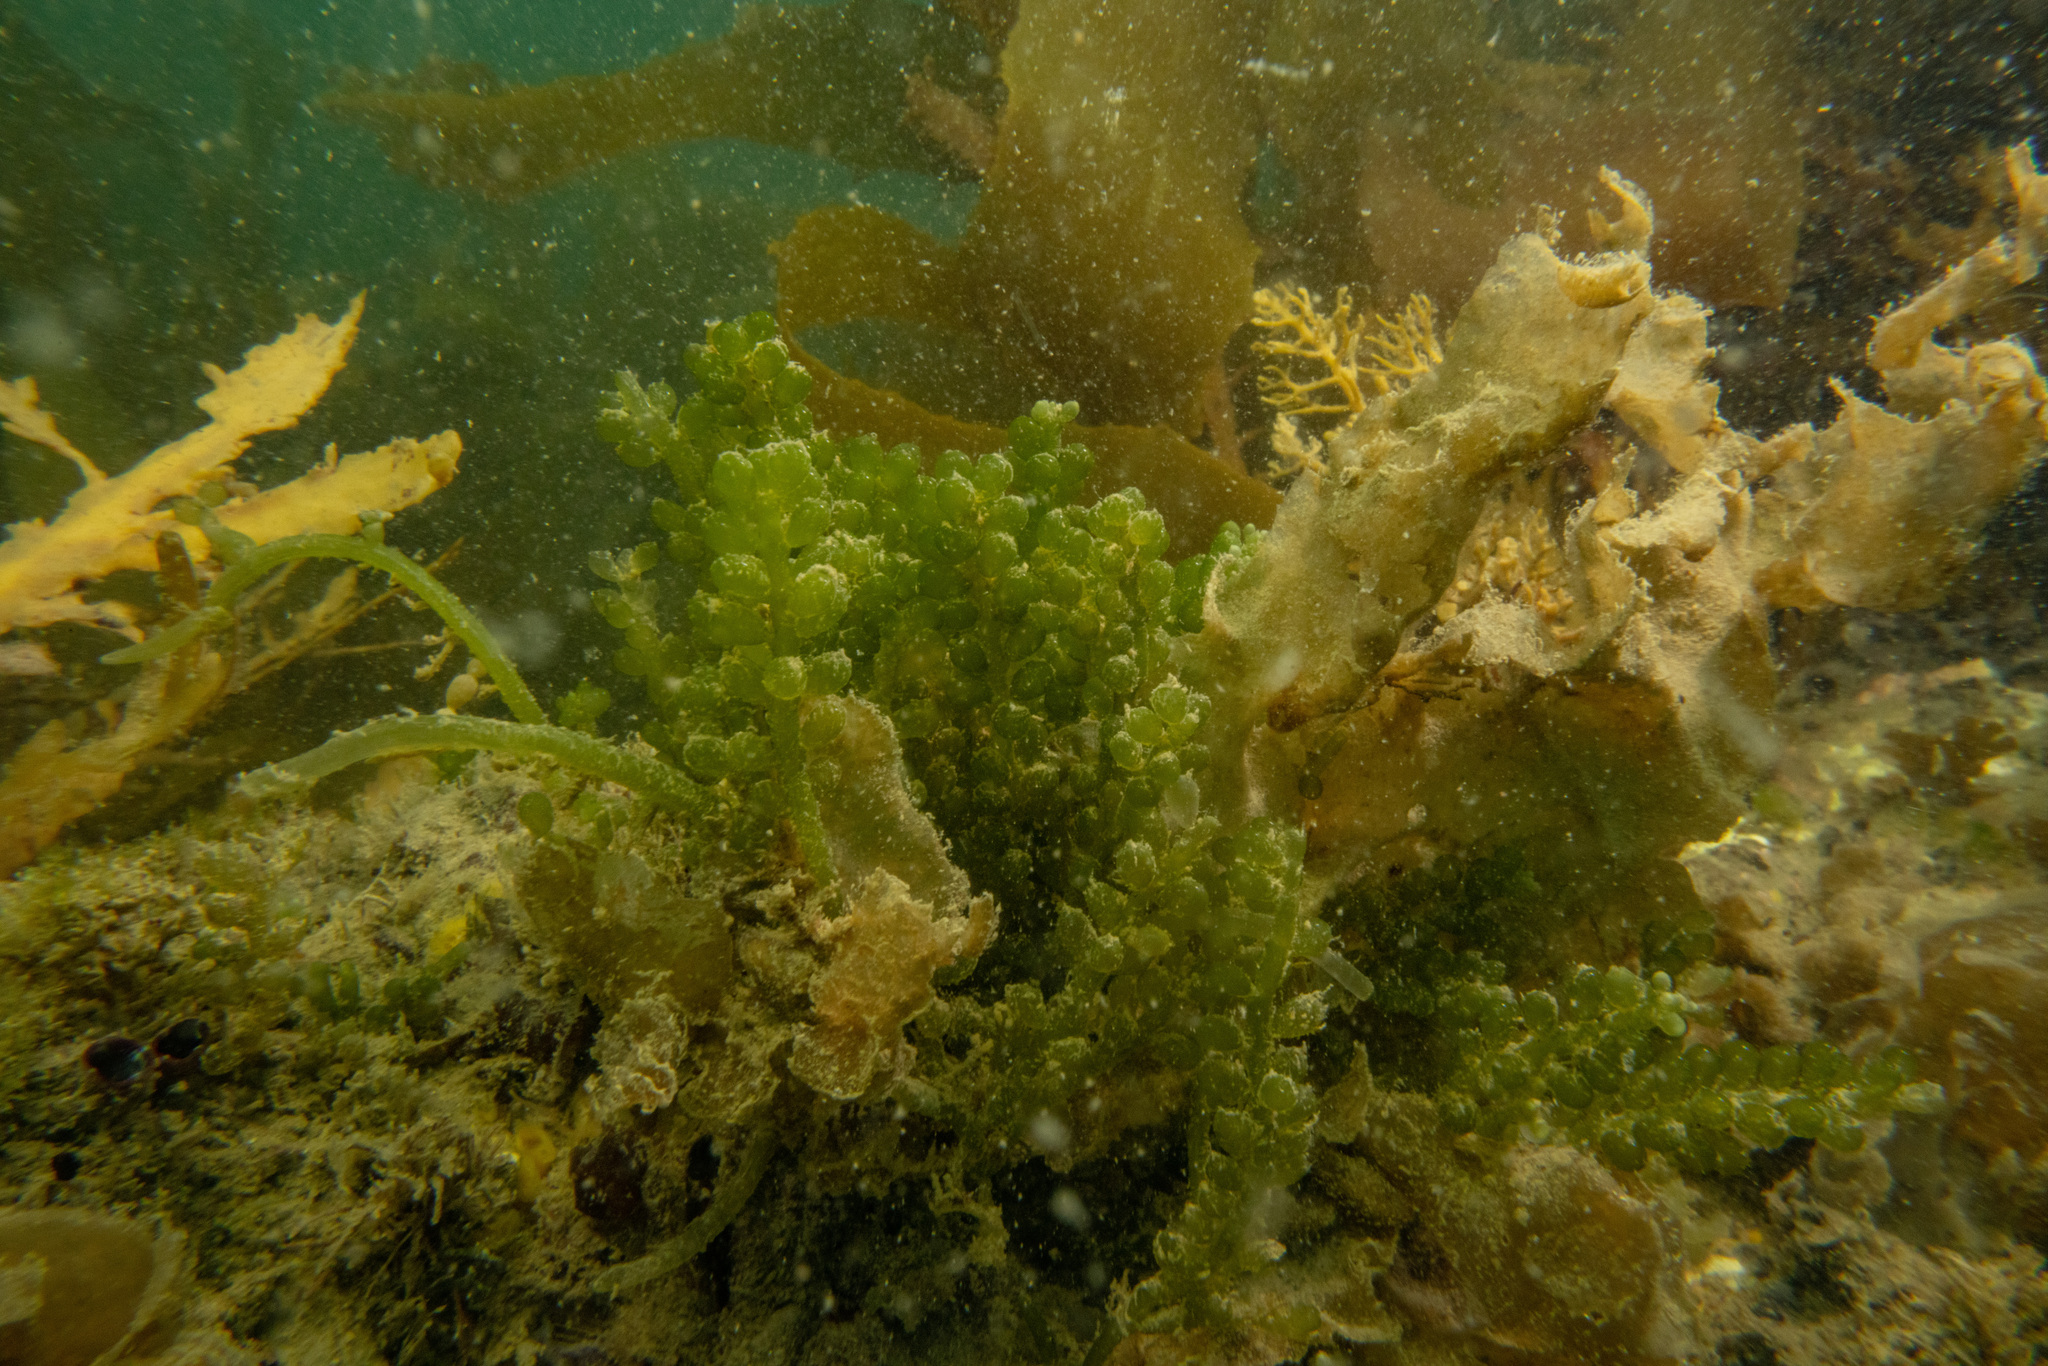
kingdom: Plantae
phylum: Chlorophyta
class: Ulvophyceae
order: Bryopsidales
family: Caulerpaceae
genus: Caulerpa
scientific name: Caulerpa geminata
